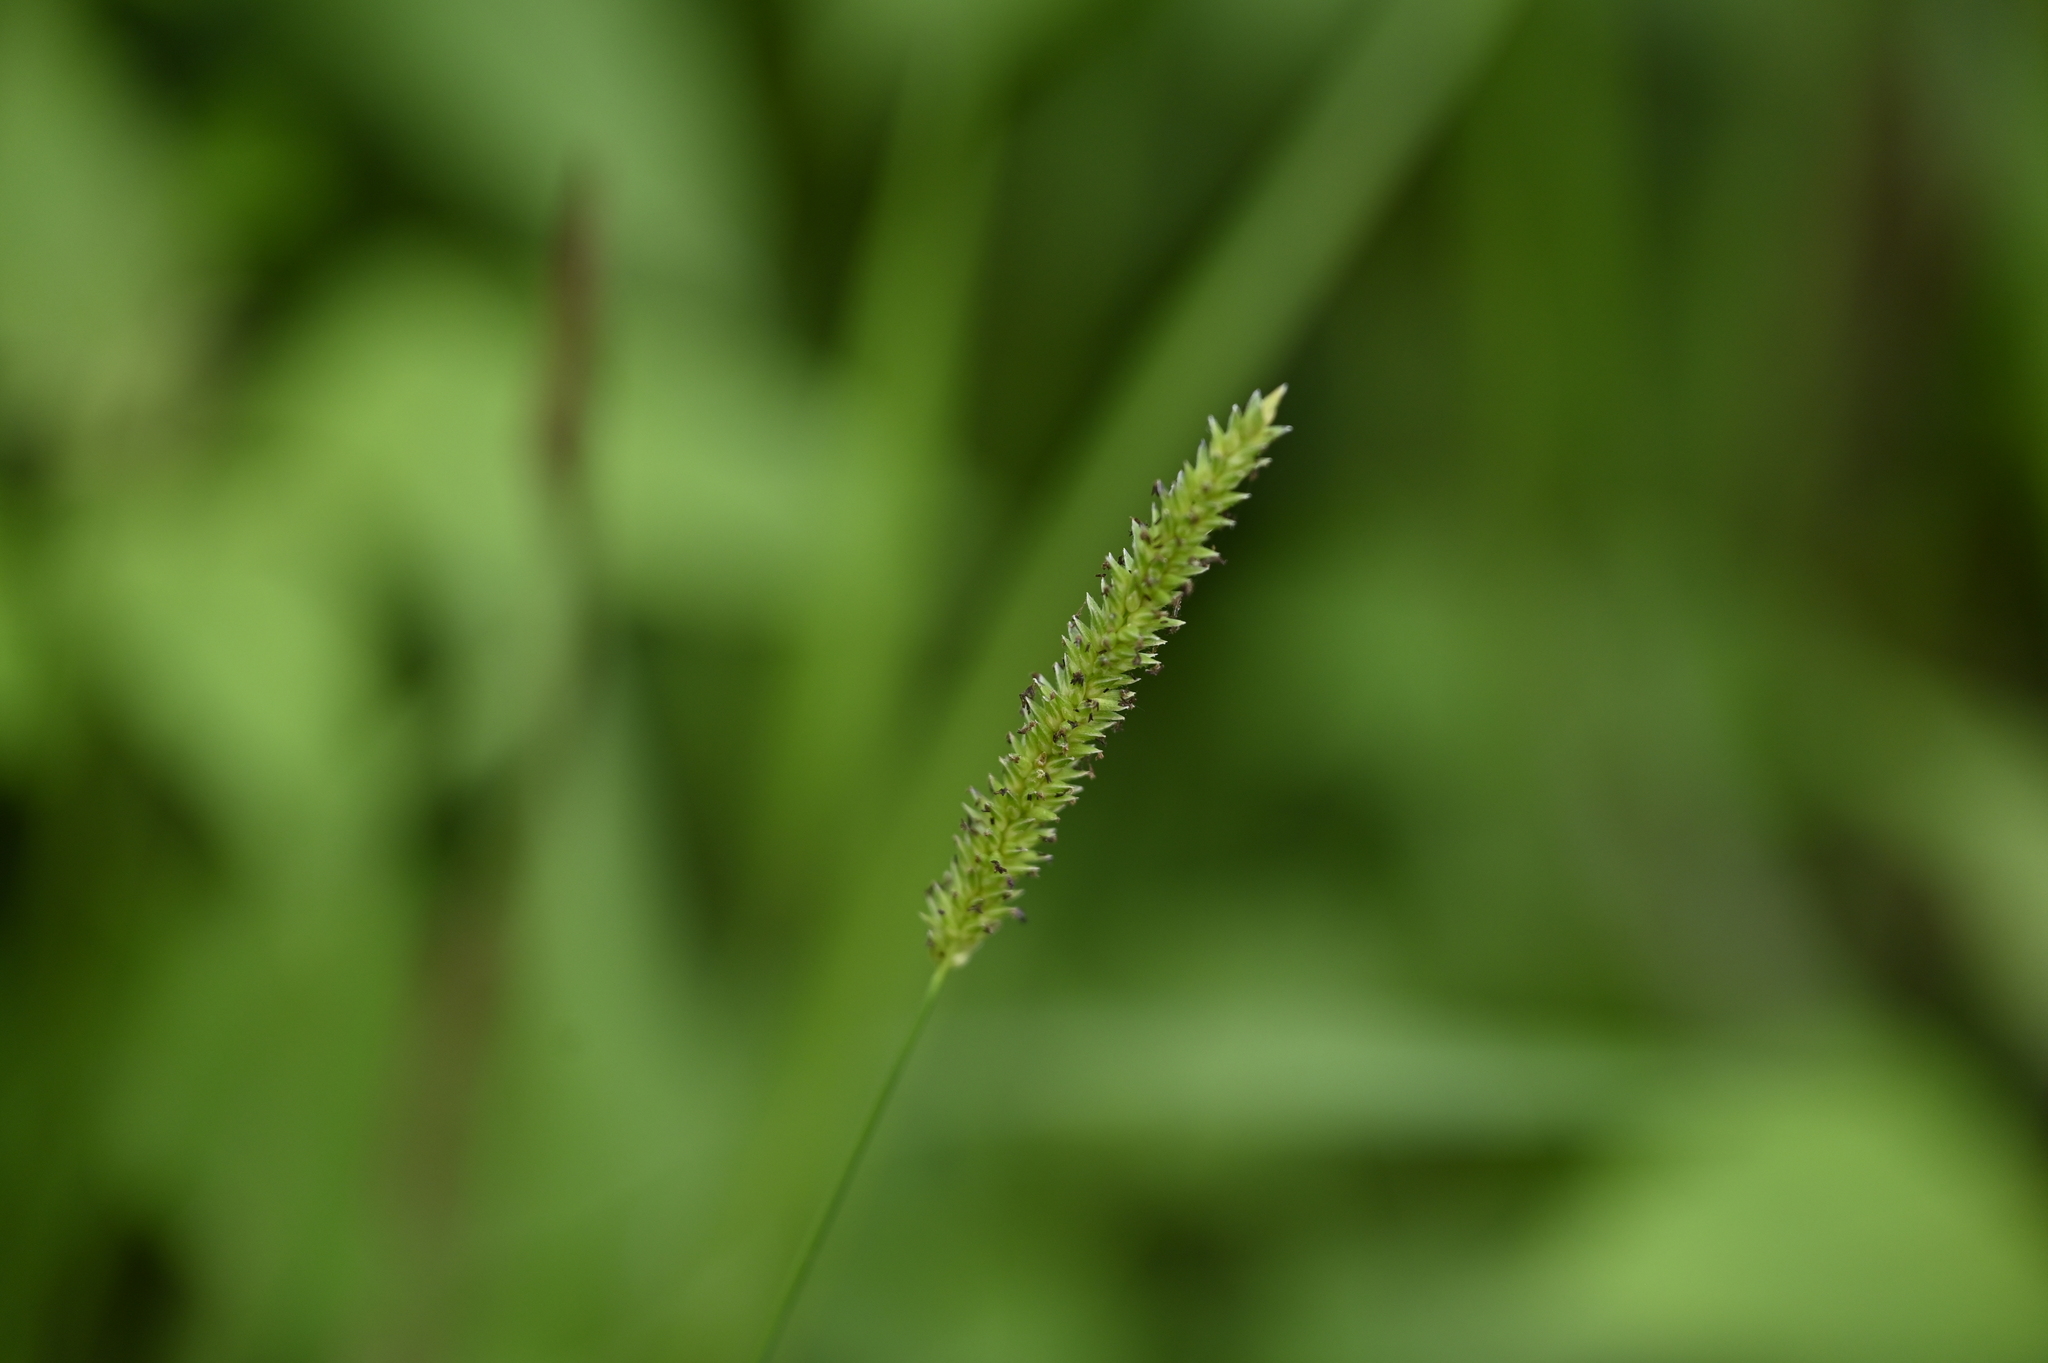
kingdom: Plantae
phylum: Tracheophyta
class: Liliopsida
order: Poales
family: Poaceae
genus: Sacciolepis
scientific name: Sacciolepis indica
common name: Glenwoodgrass
